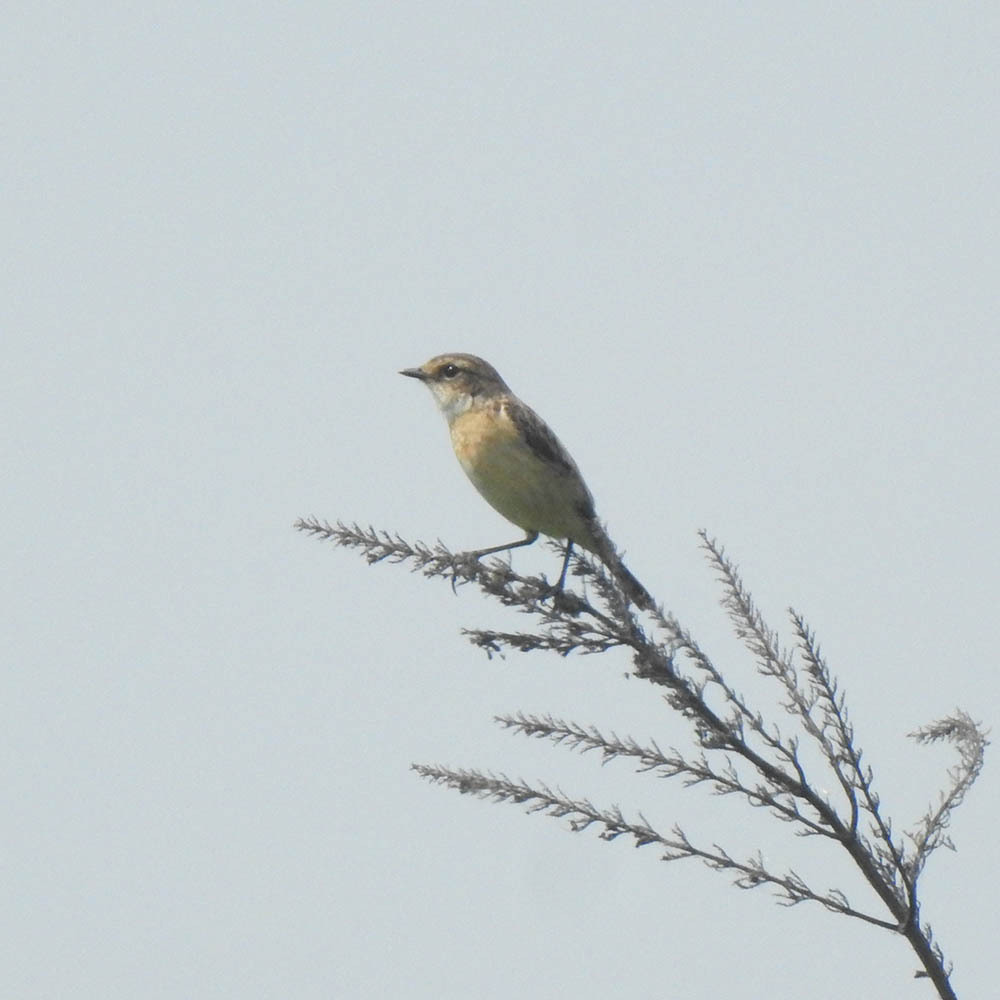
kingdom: Animalia
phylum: Chordata
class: Aves
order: Passeriformes
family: Muscicapidae
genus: Saxicola
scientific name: Saxicola maurus
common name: Siberian stonechat
